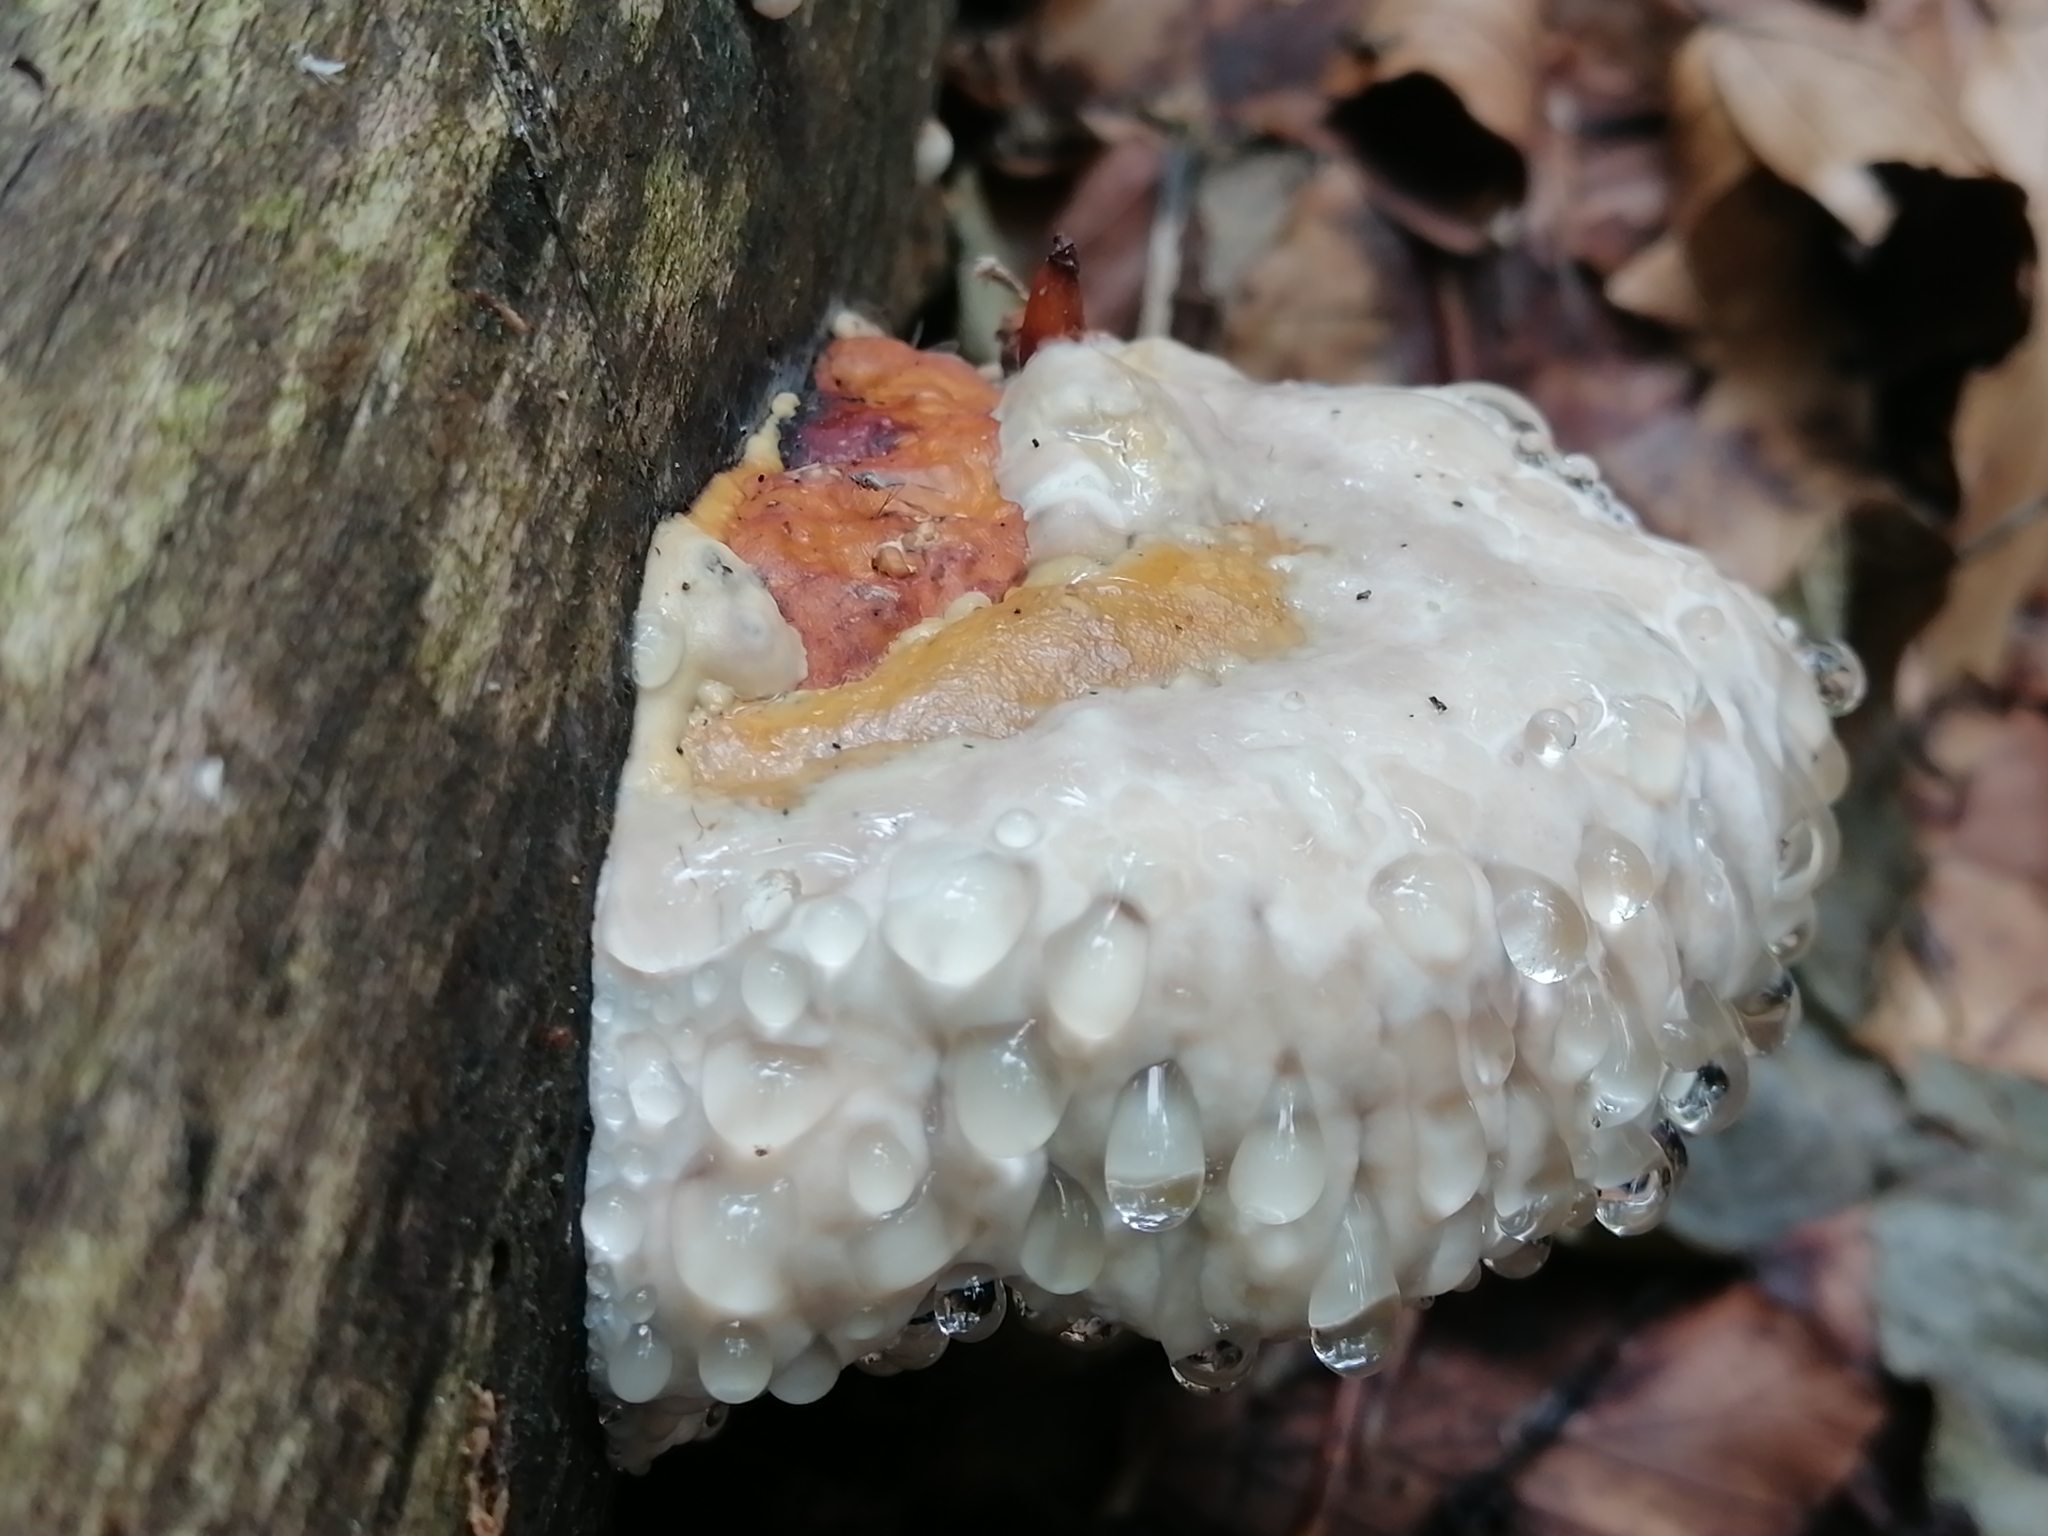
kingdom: Fungi
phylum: Basidiomycota
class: Agaricomycetes
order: Polyporales
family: Fomitopsidaceae
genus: Fomitopsis
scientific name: Fomitopsis pinicola
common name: Red-belted bracket
